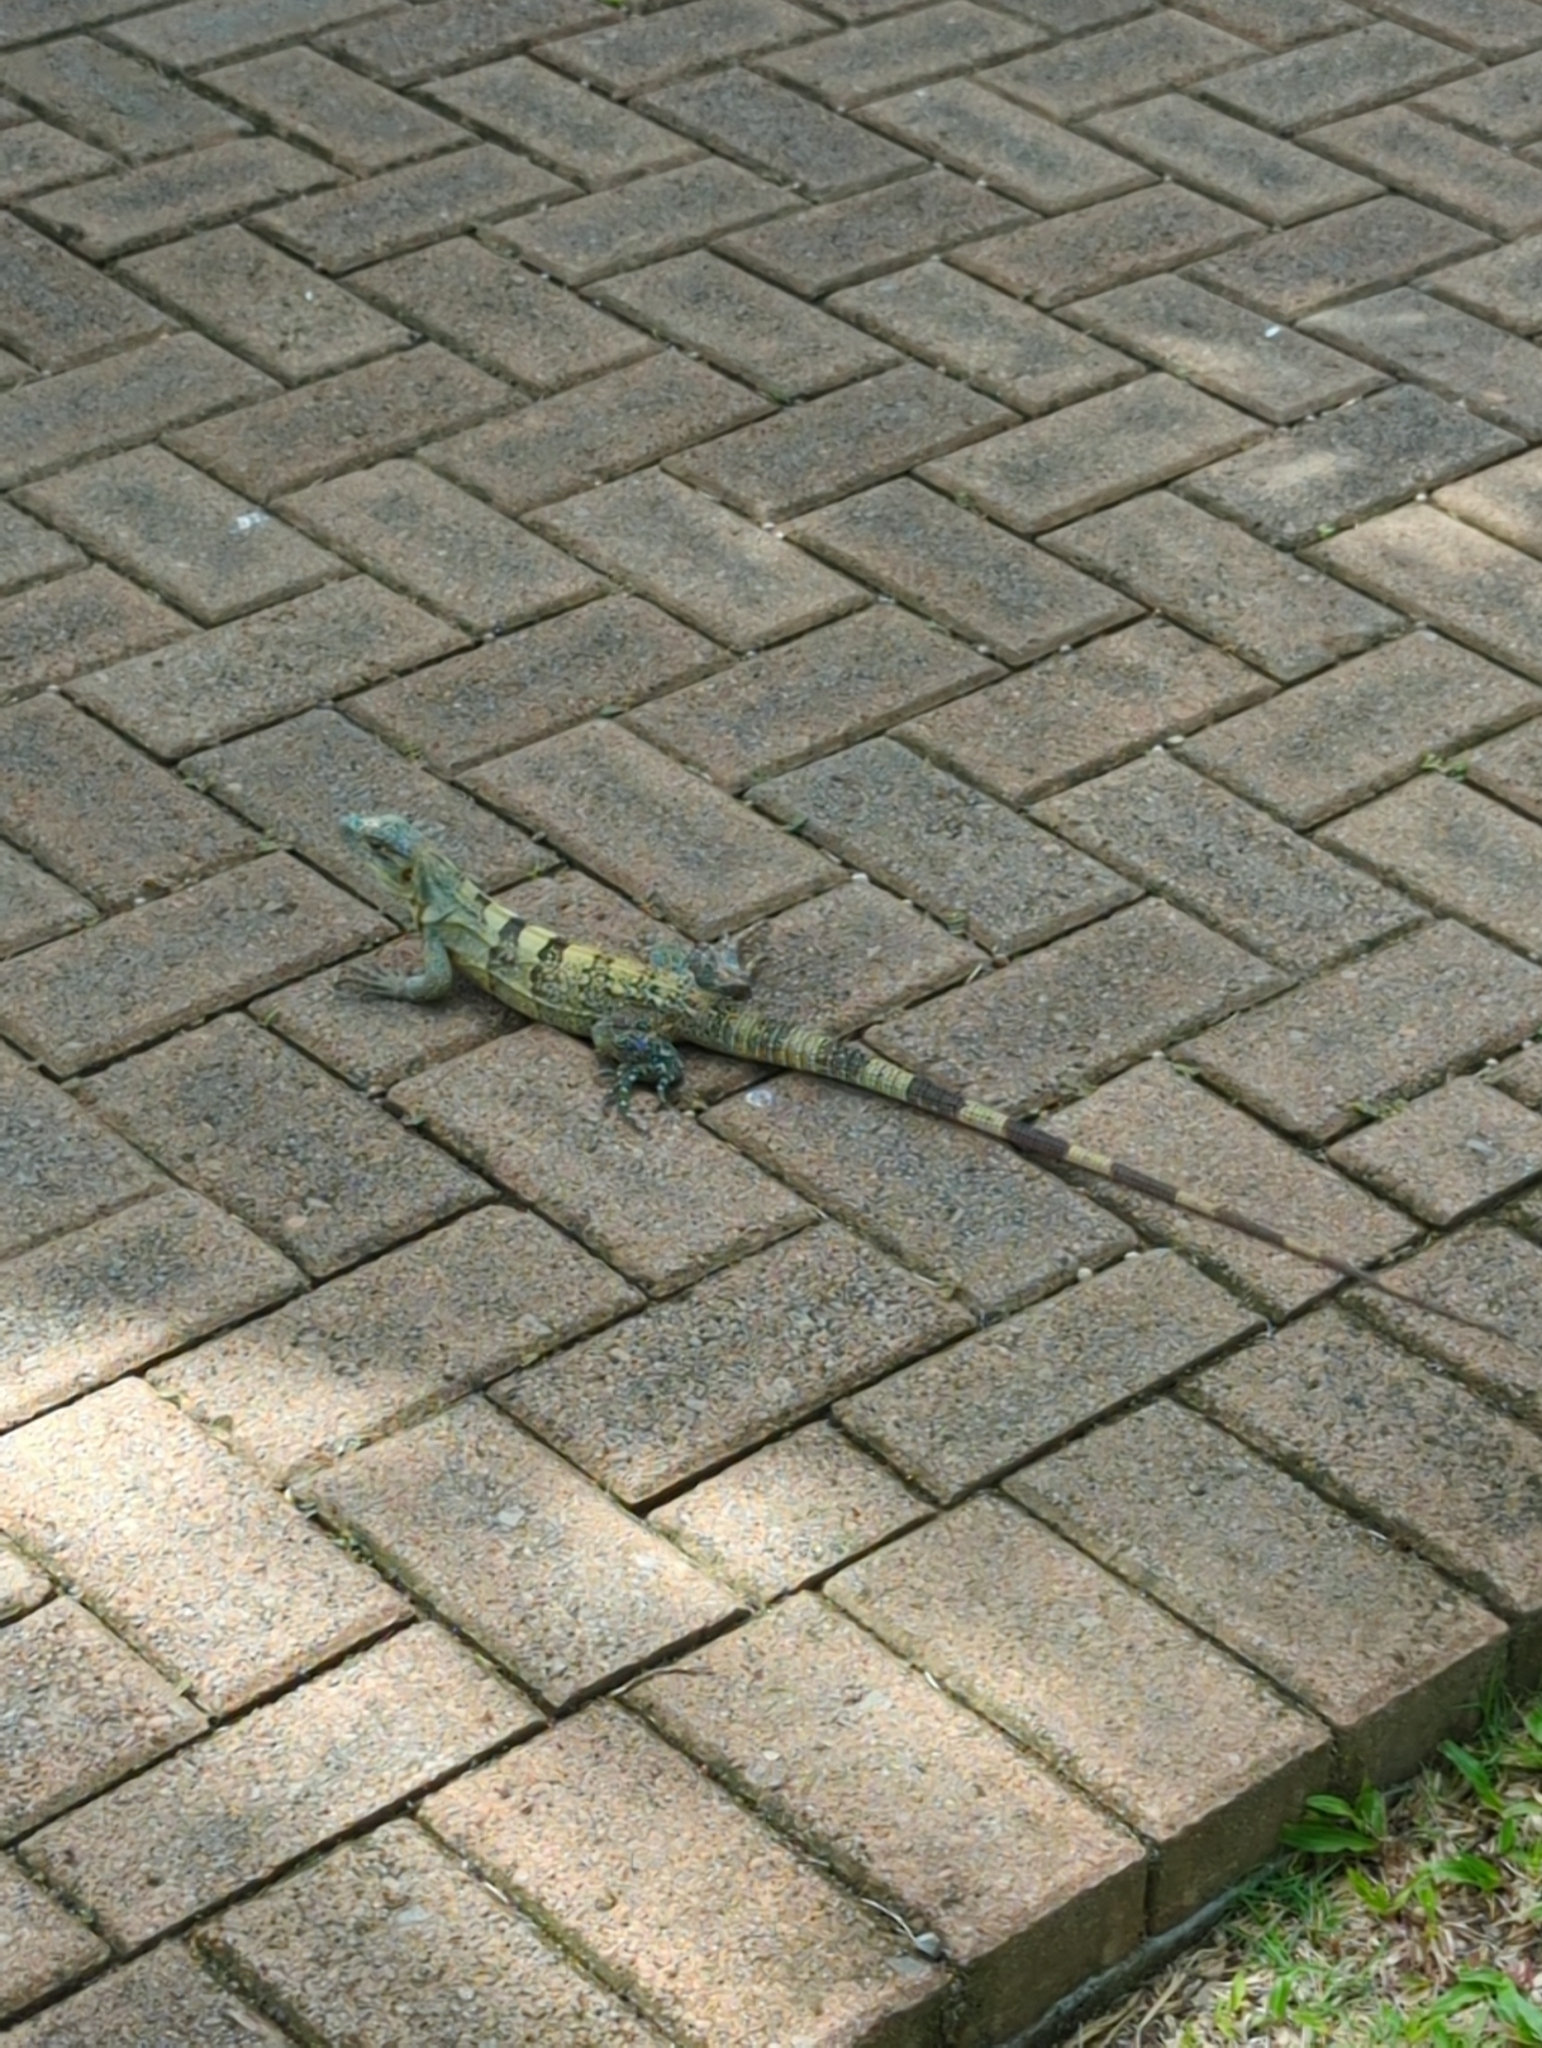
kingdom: Animalia
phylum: Chordata
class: Squamata
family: Iguanidae
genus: Ctenosaura
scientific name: Ctenosaura similis
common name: Black spiny-tailed iguana
